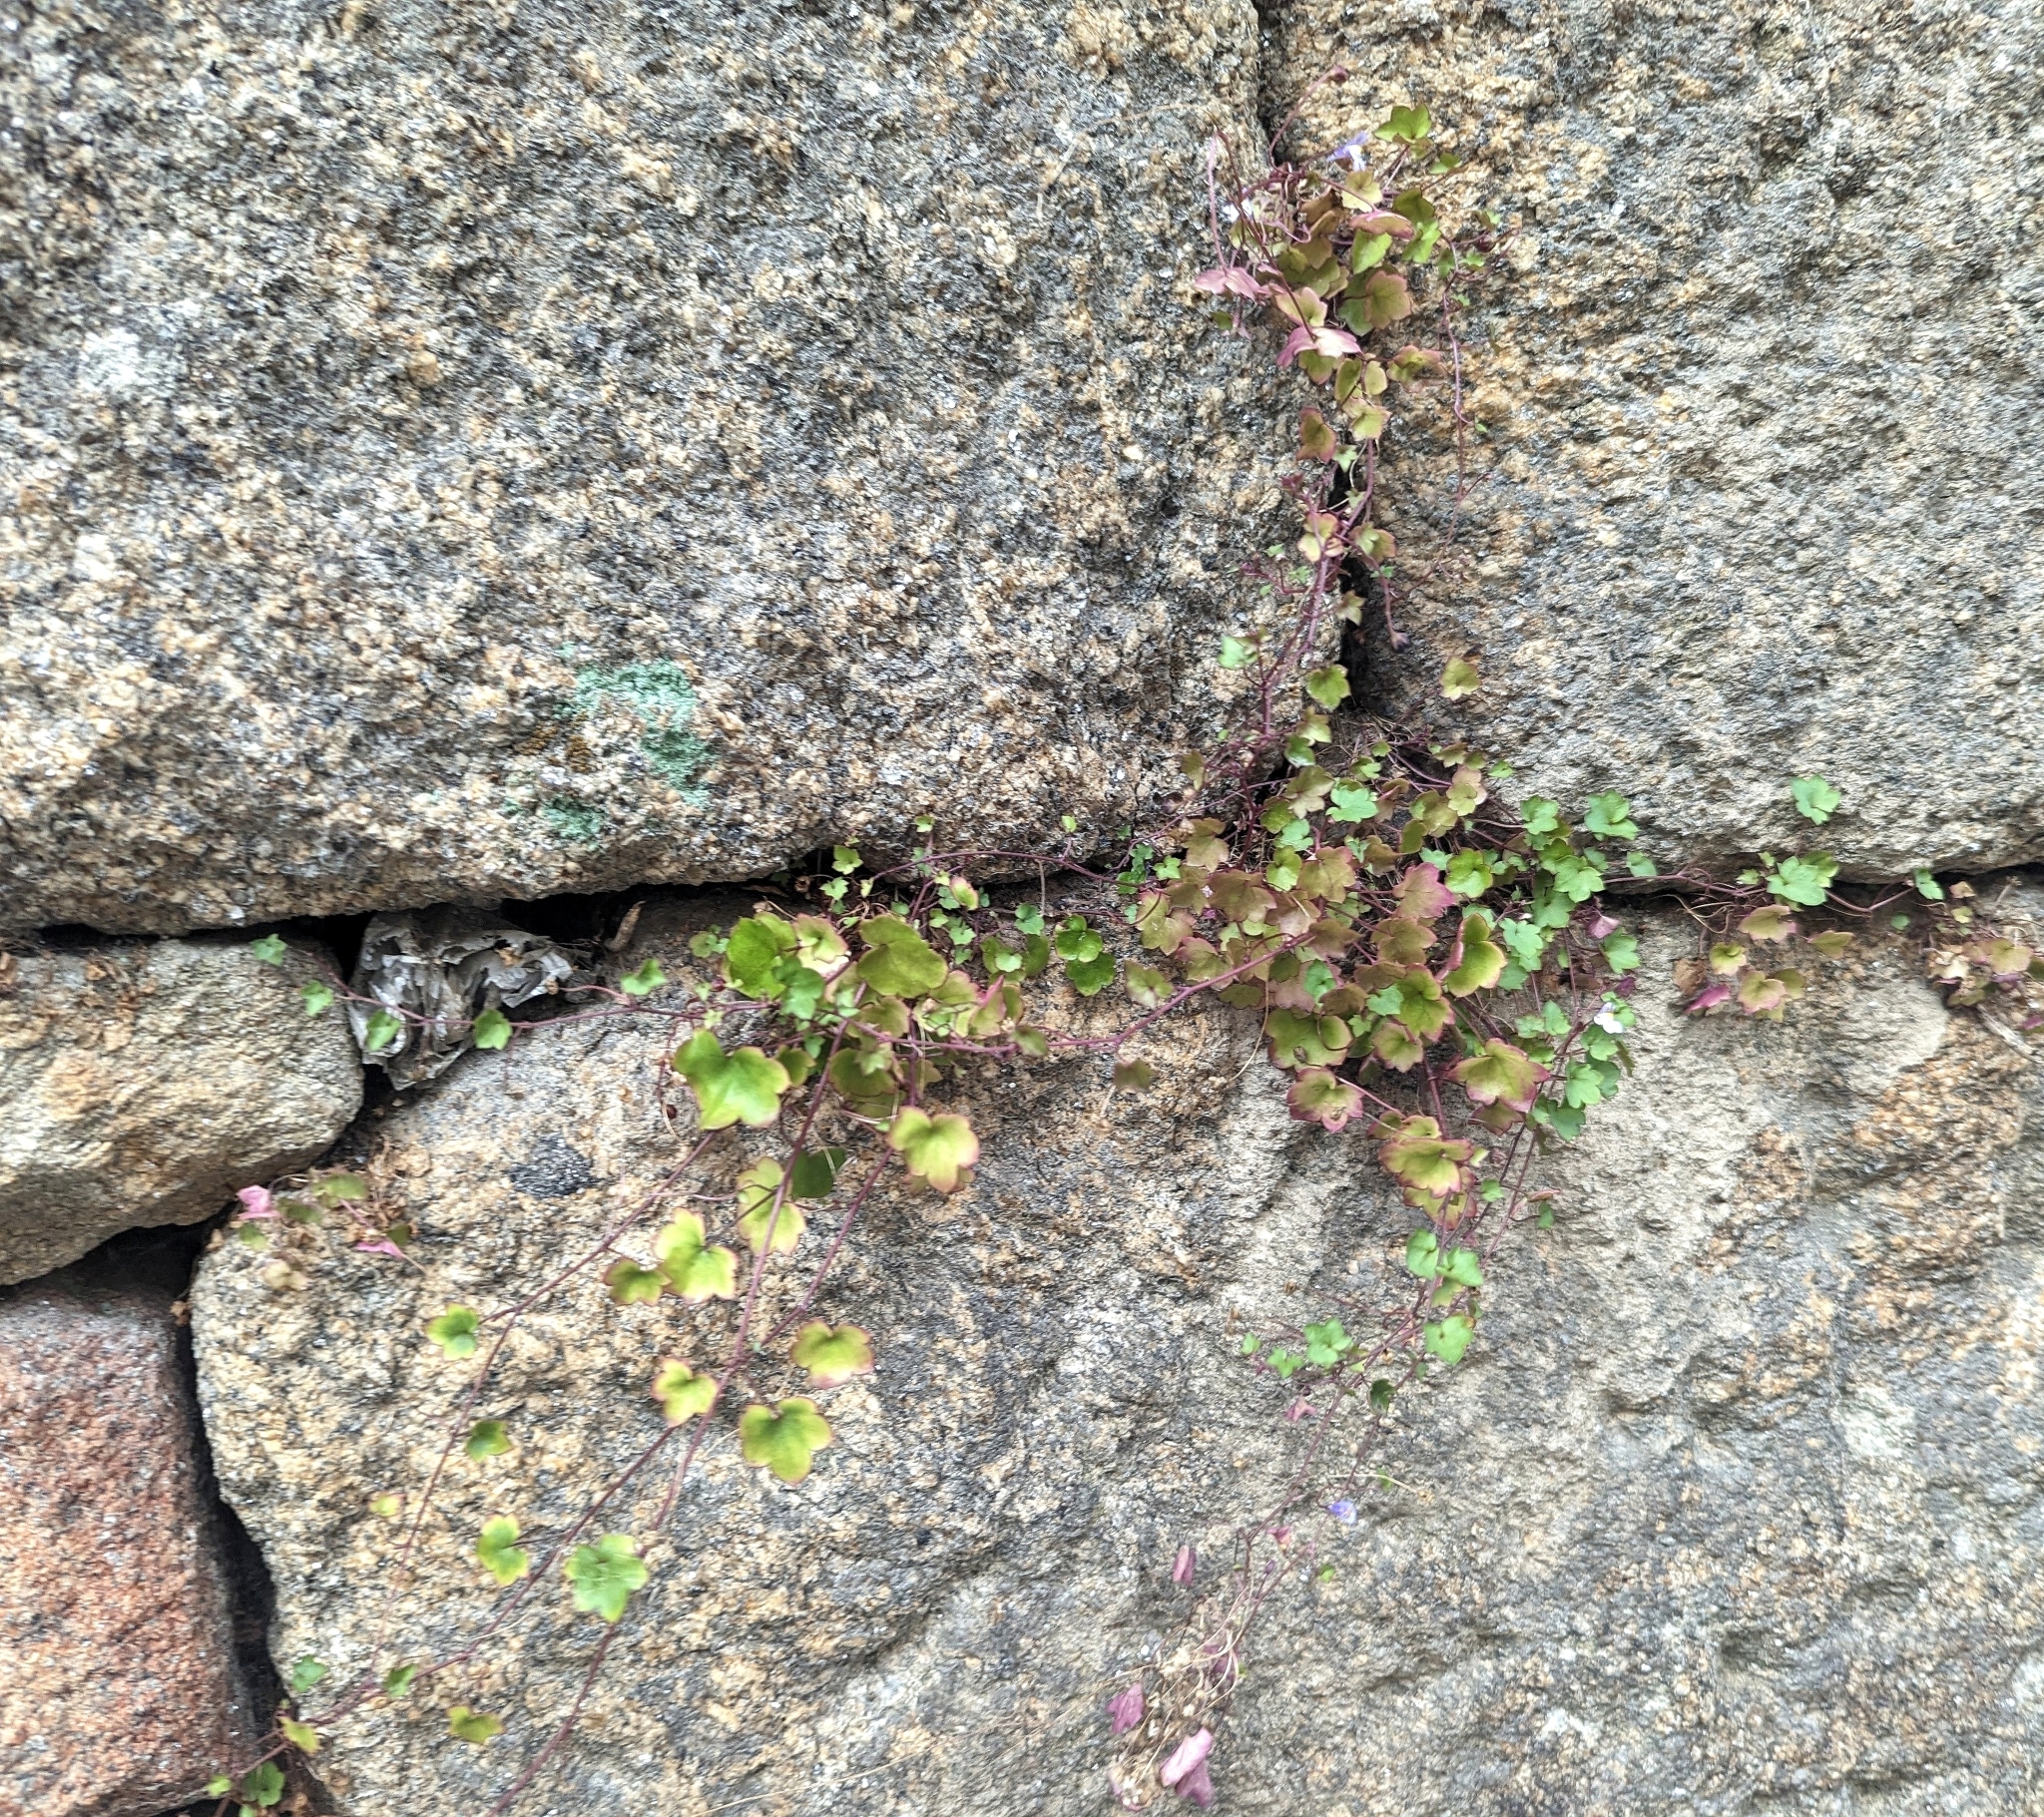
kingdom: Plantae
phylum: Tracheophyta
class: Magnoliopsida
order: Lamiales
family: Plantaginaceae
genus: Cymbalaria
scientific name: Cymbalaria muralis
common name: Ivy-leaved toadflax
